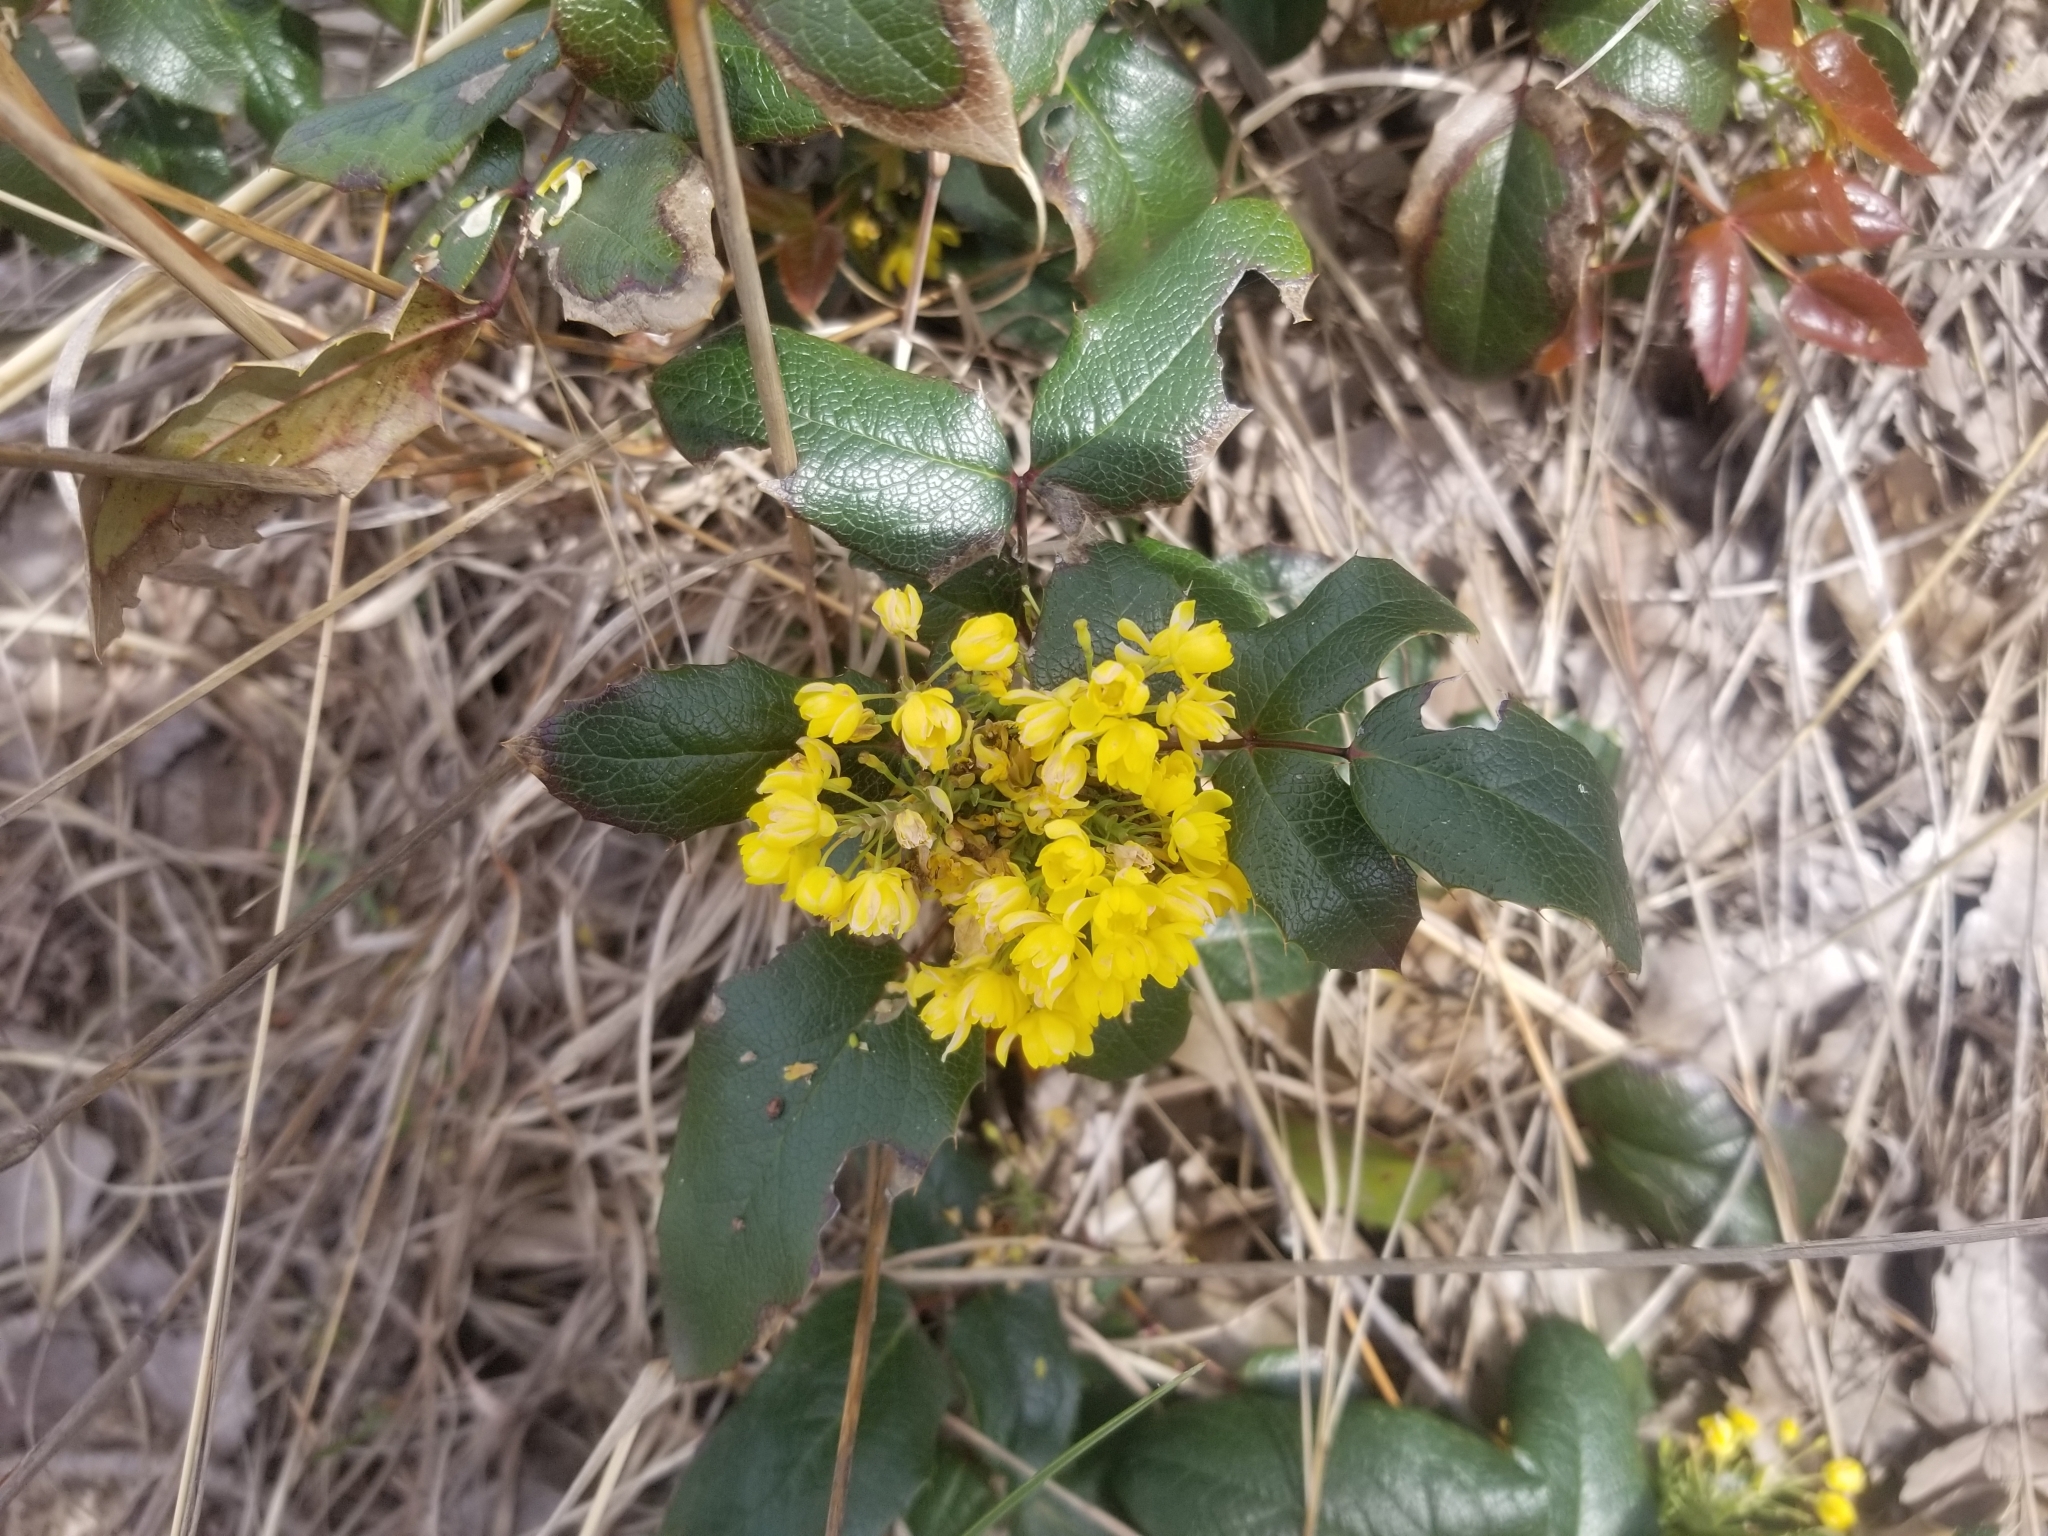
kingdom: Plantae
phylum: Tracheophyta
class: Magnoliopsida
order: Ranunculales
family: Berberidaceae
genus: Mahonia
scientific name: Mahonia aquifolium
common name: Oregon-grape
